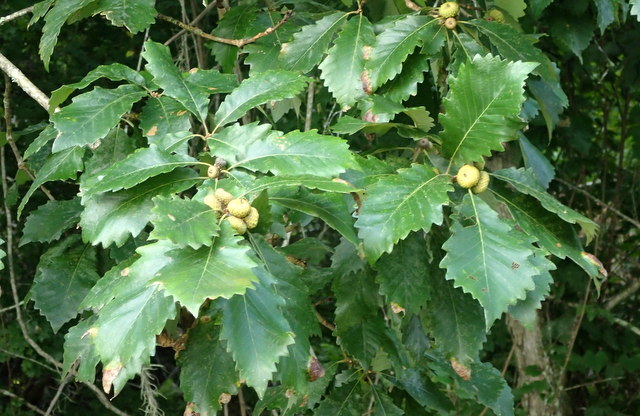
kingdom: Plantae
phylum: Tracheophyta
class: Magnoliopsida
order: Fagales
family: Fagaceae
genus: Quercus
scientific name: Quercus michauxii
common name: Swamp chestnut oak
